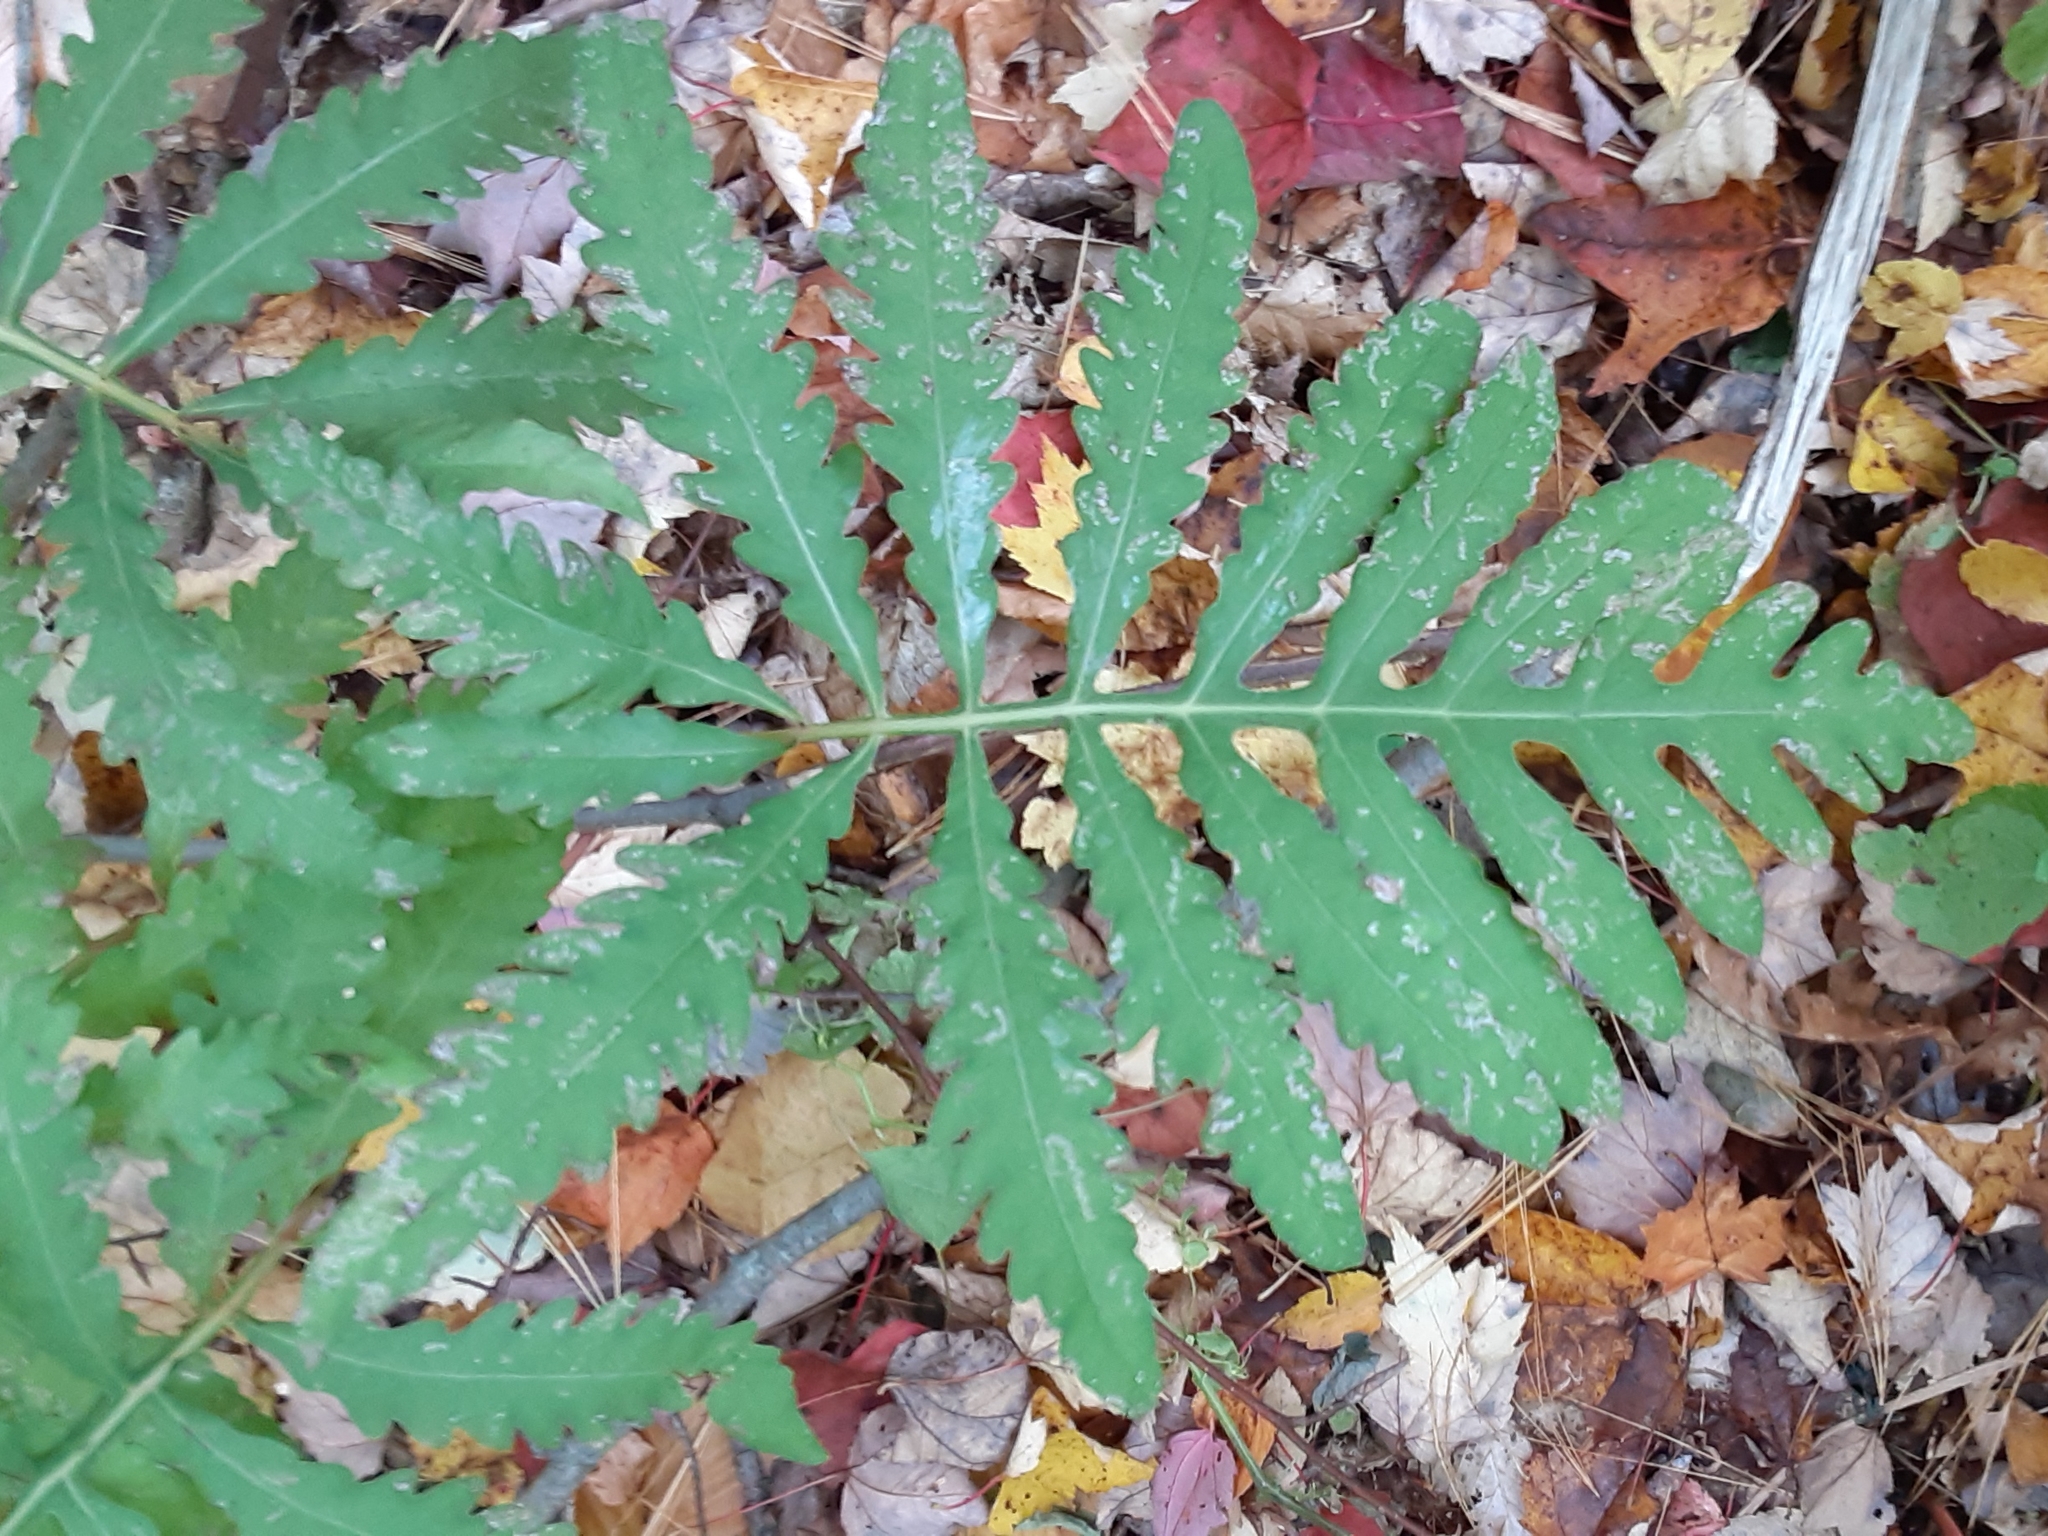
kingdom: Plantae
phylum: Tracheophyta
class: Polypodiopsida
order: Polypodiales
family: Onocleaceae
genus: Onoclea
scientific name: Onoclea sensibilis
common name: Sensitive fern
